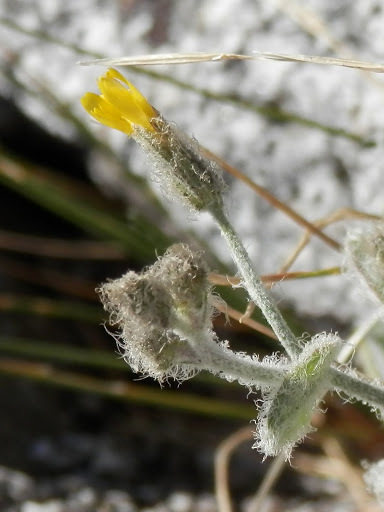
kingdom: Plantae
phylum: Tracheophyta
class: Magnoliopsida
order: Asterales
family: Asteraceae
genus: Hieracium
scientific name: Hieracium horridum
